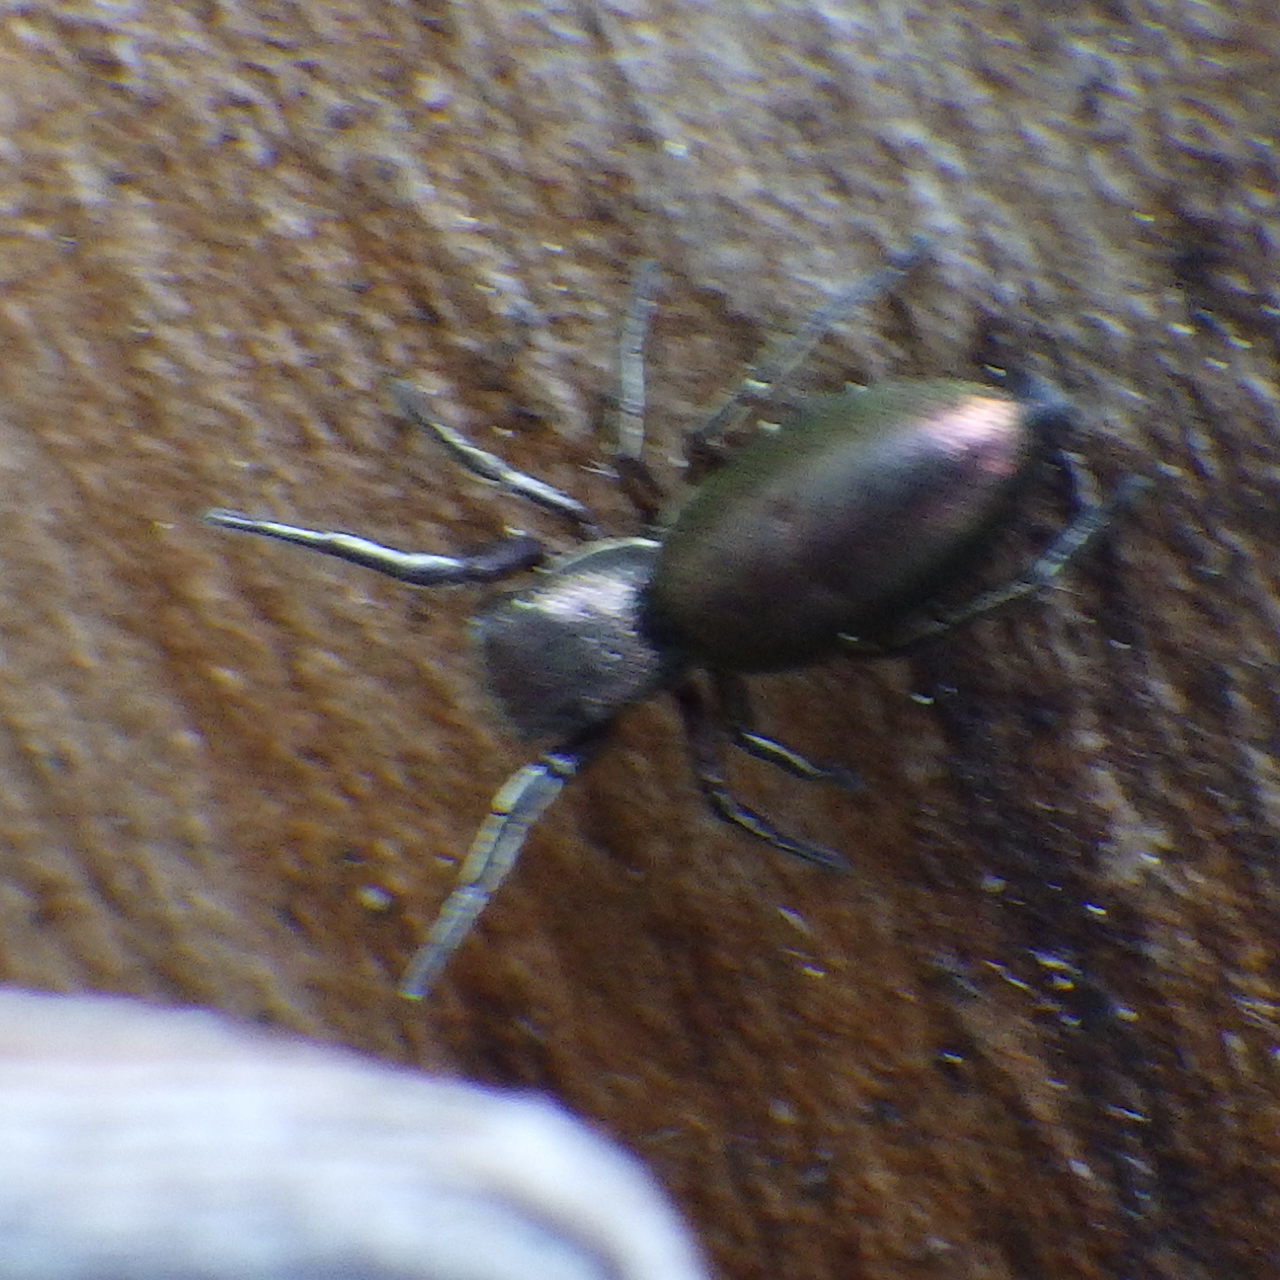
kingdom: Animalia
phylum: Arthropoda
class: Arachnida
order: Araneae
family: Salticidae
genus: Tutelina
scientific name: Tutelina elegans
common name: Thin-spined jumping spider
